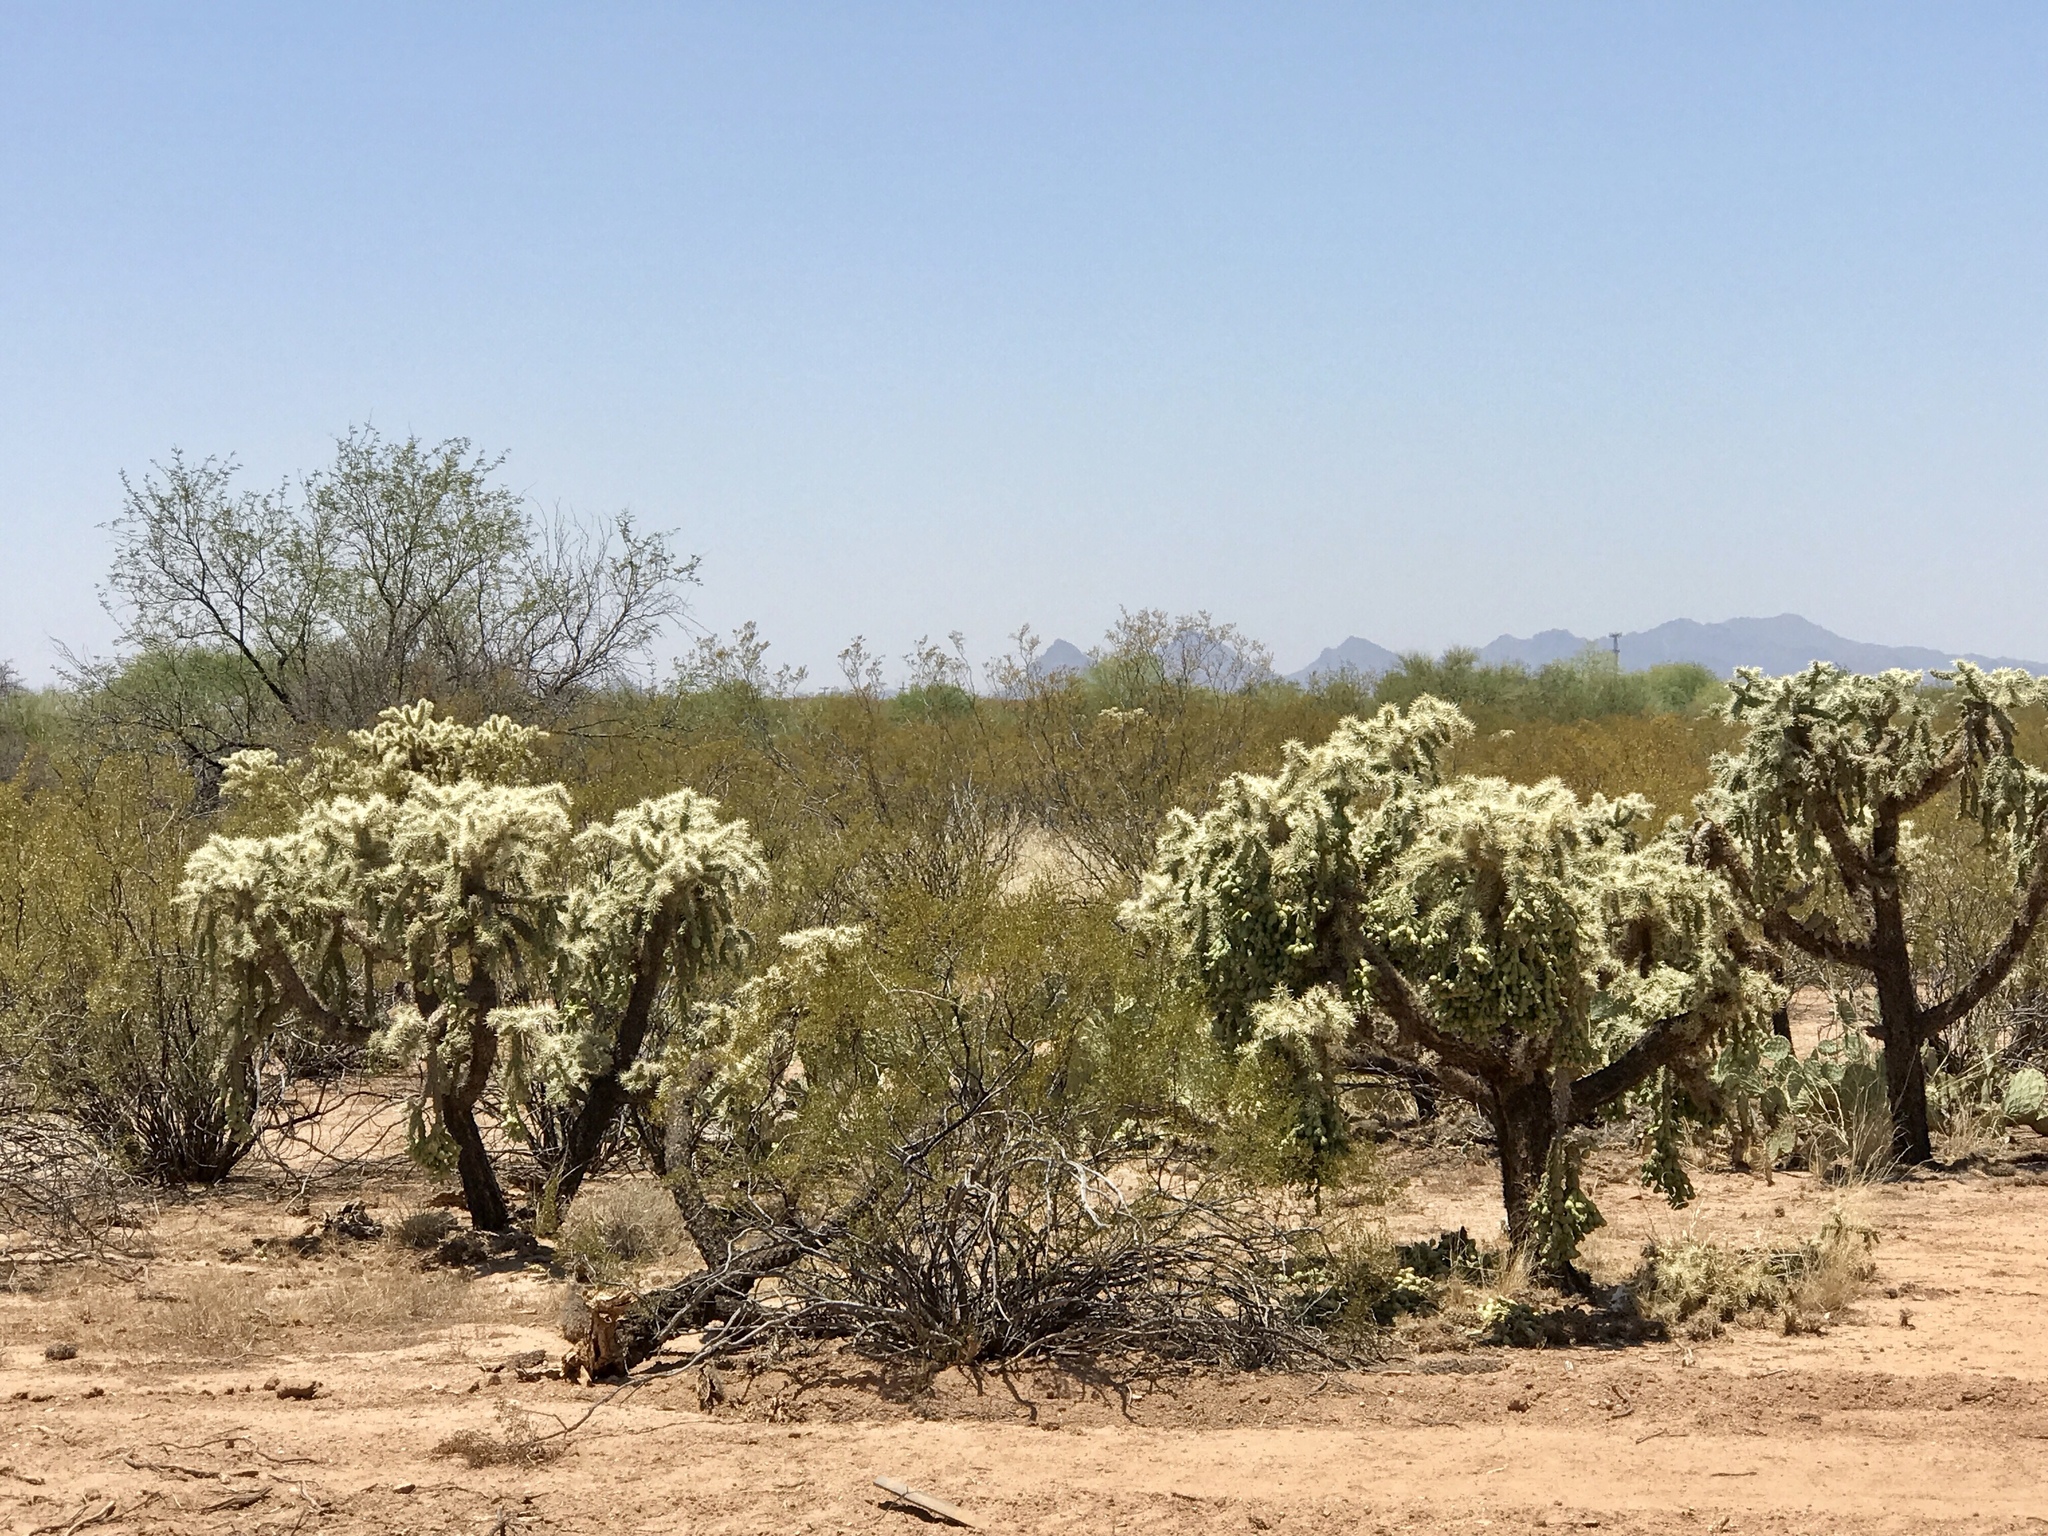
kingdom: Plantae
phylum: Tracheophyta
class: Magnoliopsida
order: Caryophyllales
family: Cactaceae
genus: Cylindropuntia
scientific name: Cylindropuntia fulgida
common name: Jumping cholla
